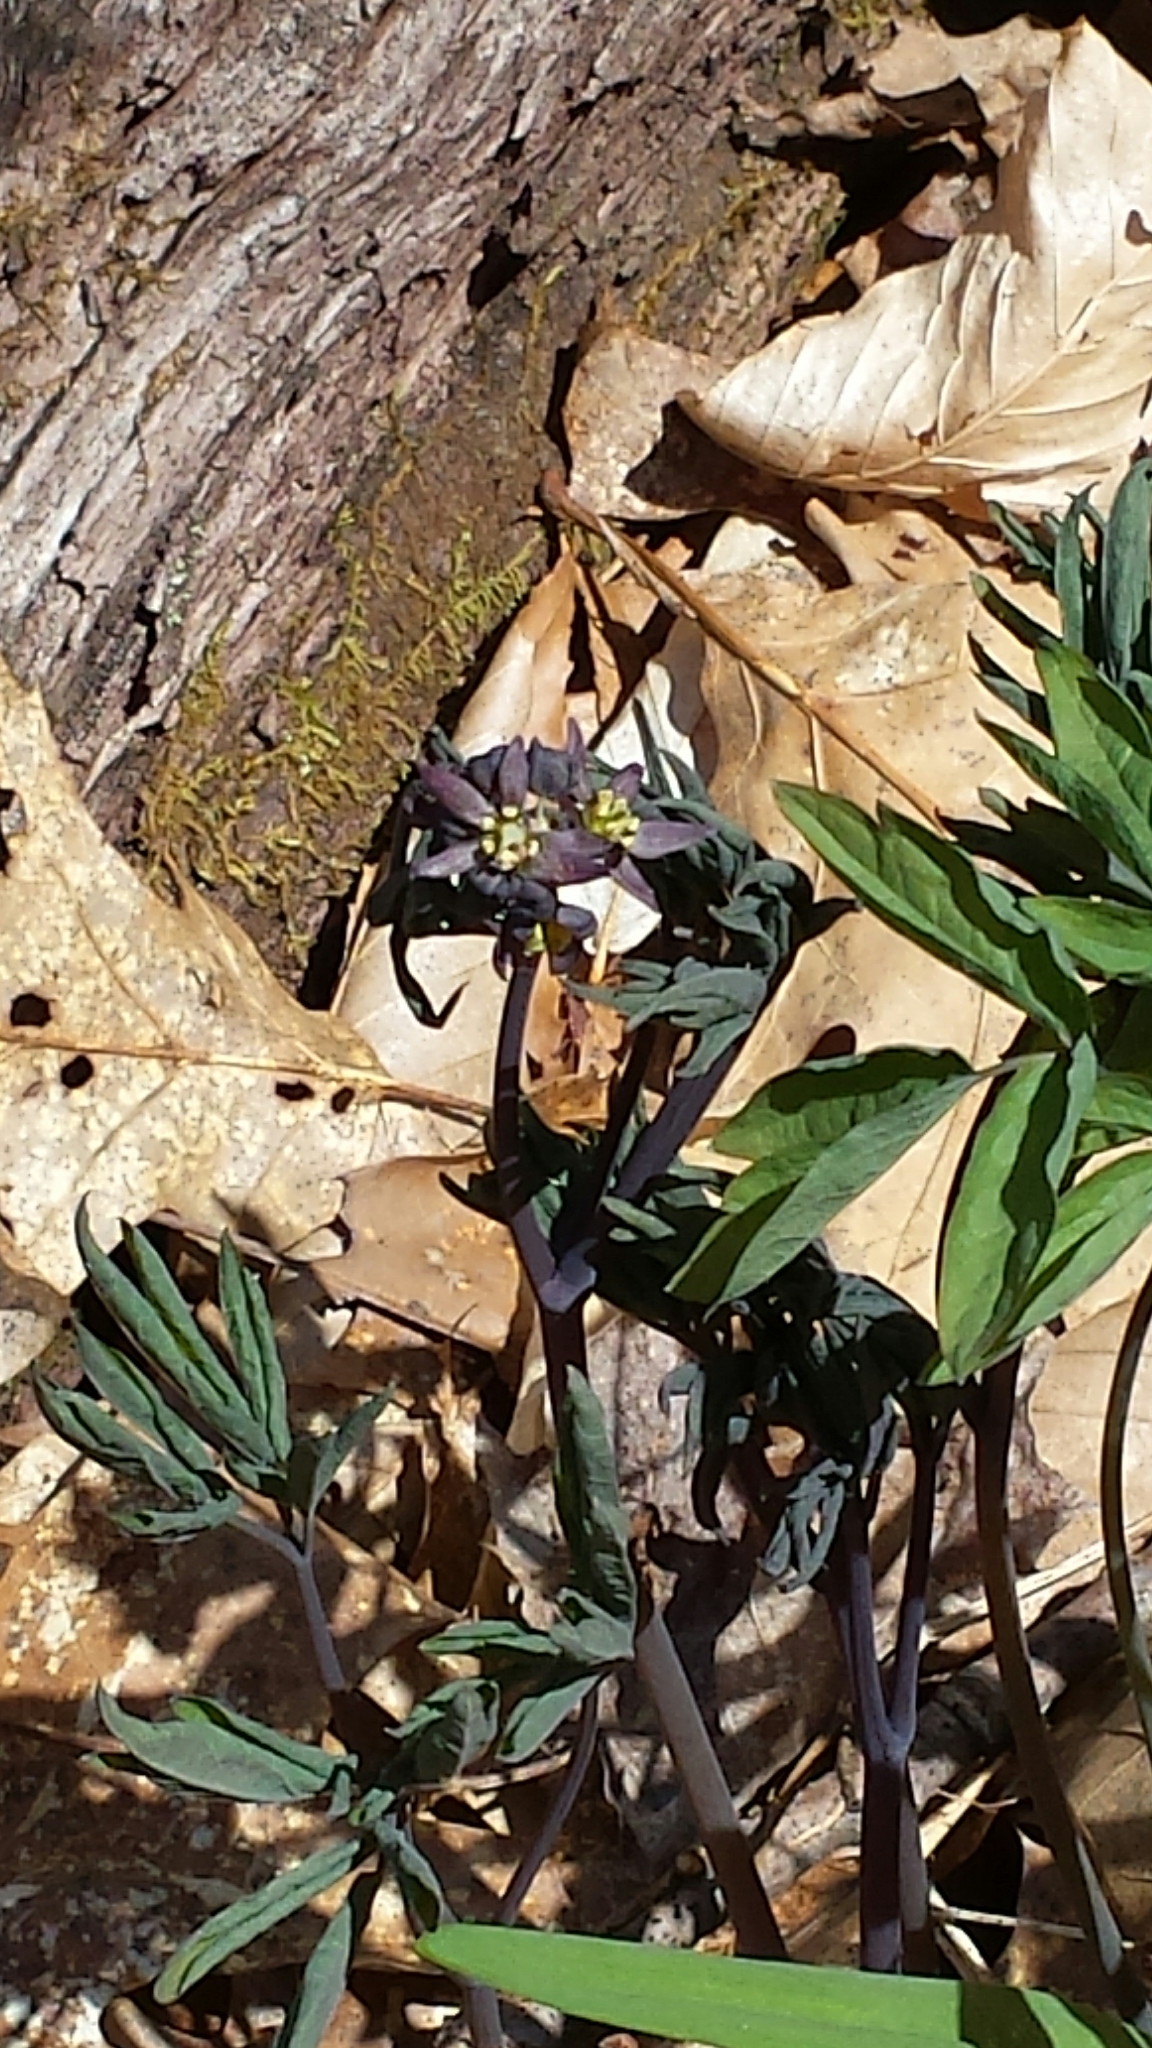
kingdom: Plantae
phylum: Tracheophyta
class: Magnoliopsida
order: Ranunculales
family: Berberidaceae
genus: Caulophyllum
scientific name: Caulophyllum giganteum
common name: Blue cohosh
